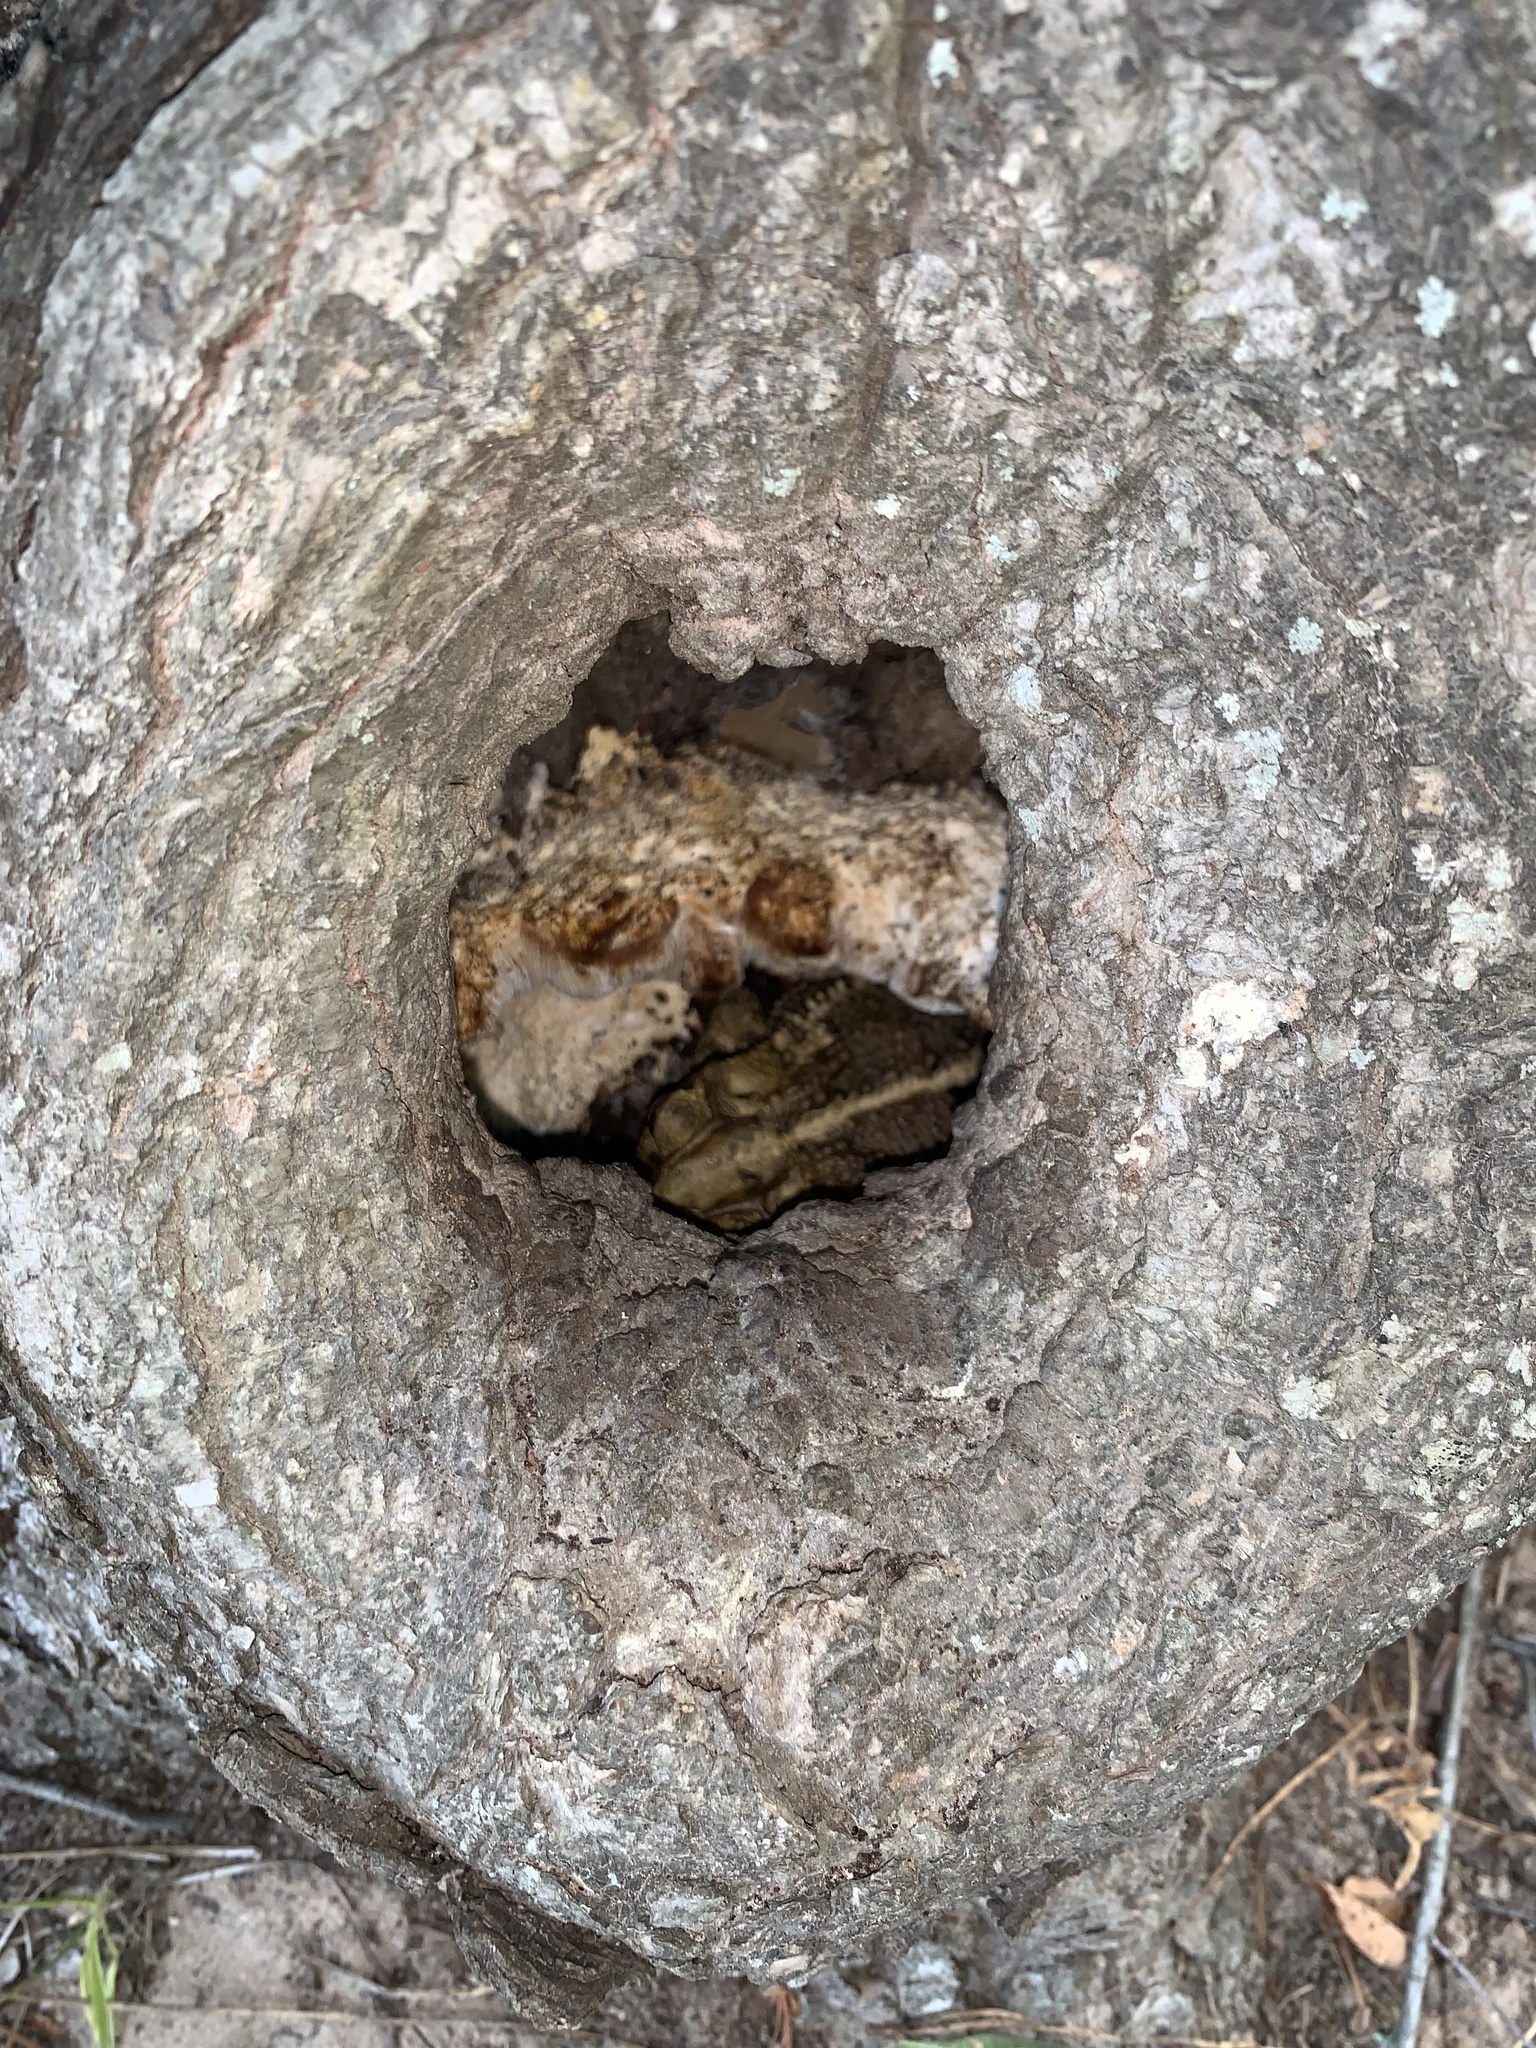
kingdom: Animalia
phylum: Chordata
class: Amphibia
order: Anura
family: Bufonidae
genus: Incilius
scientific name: Incilius nebulifer
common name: Gulf coast toad
